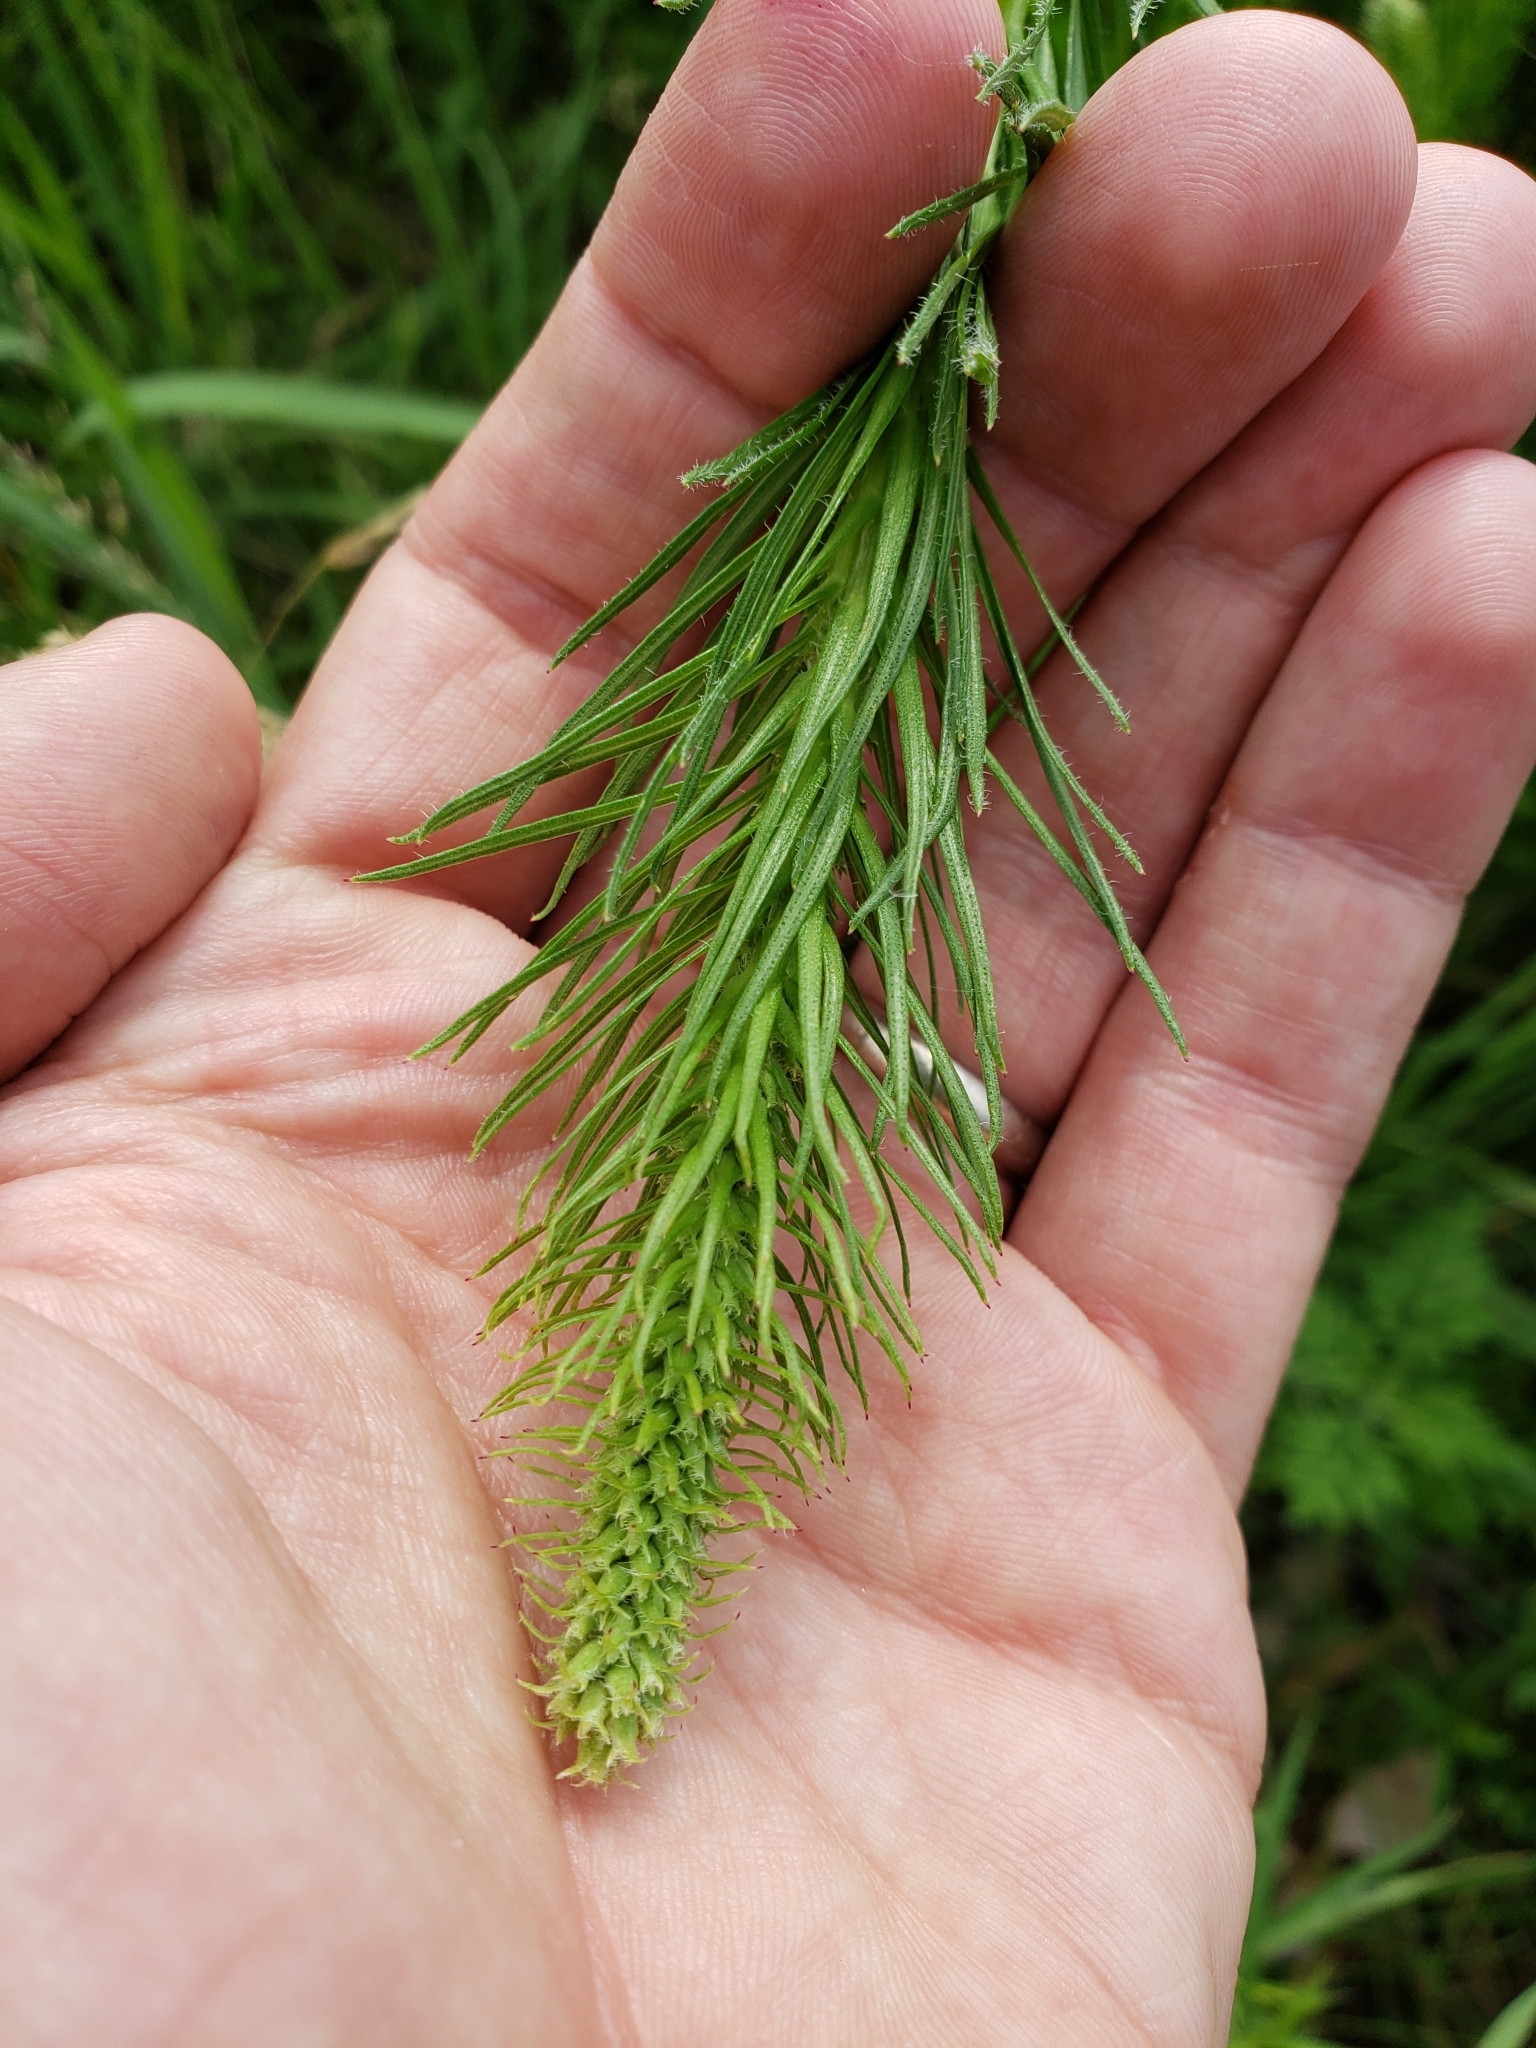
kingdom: Plantae
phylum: Tracheophyta
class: Magnoliopsida
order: Asterales
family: Asteraceae
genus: Liatris
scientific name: Liatris pycnostachya
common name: Cattail gayfeather
